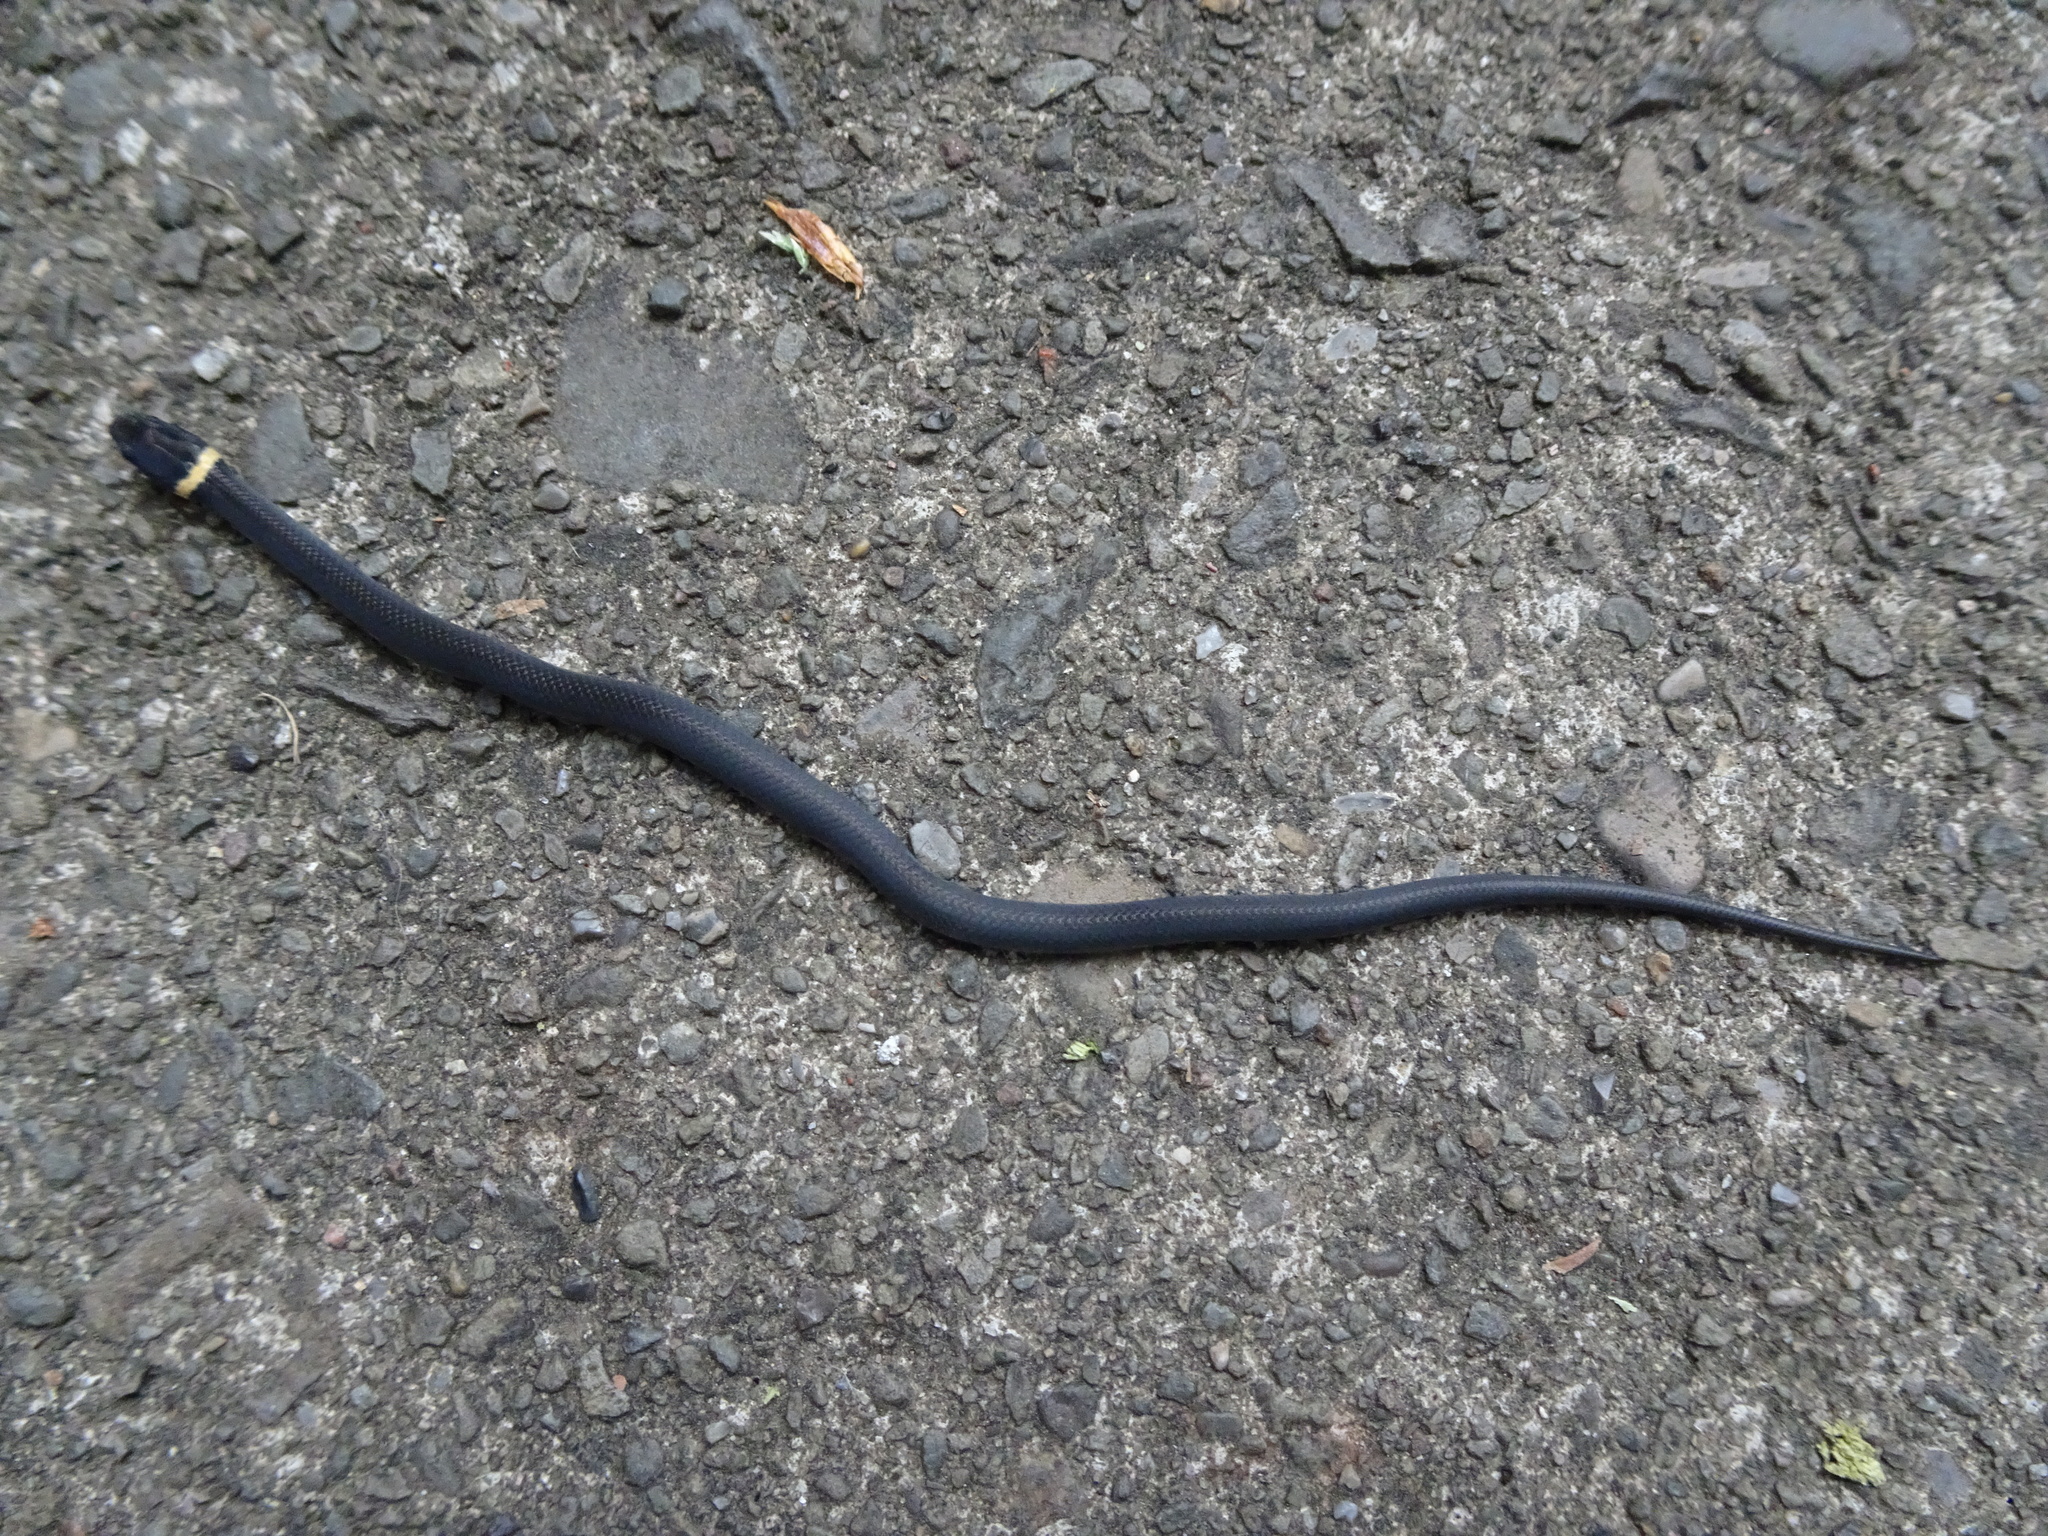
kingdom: Animalia
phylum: Chordata
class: Squamata
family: Colubridae
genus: Diadophis
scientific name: Diadophis punctatus
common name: Ringneck snake
